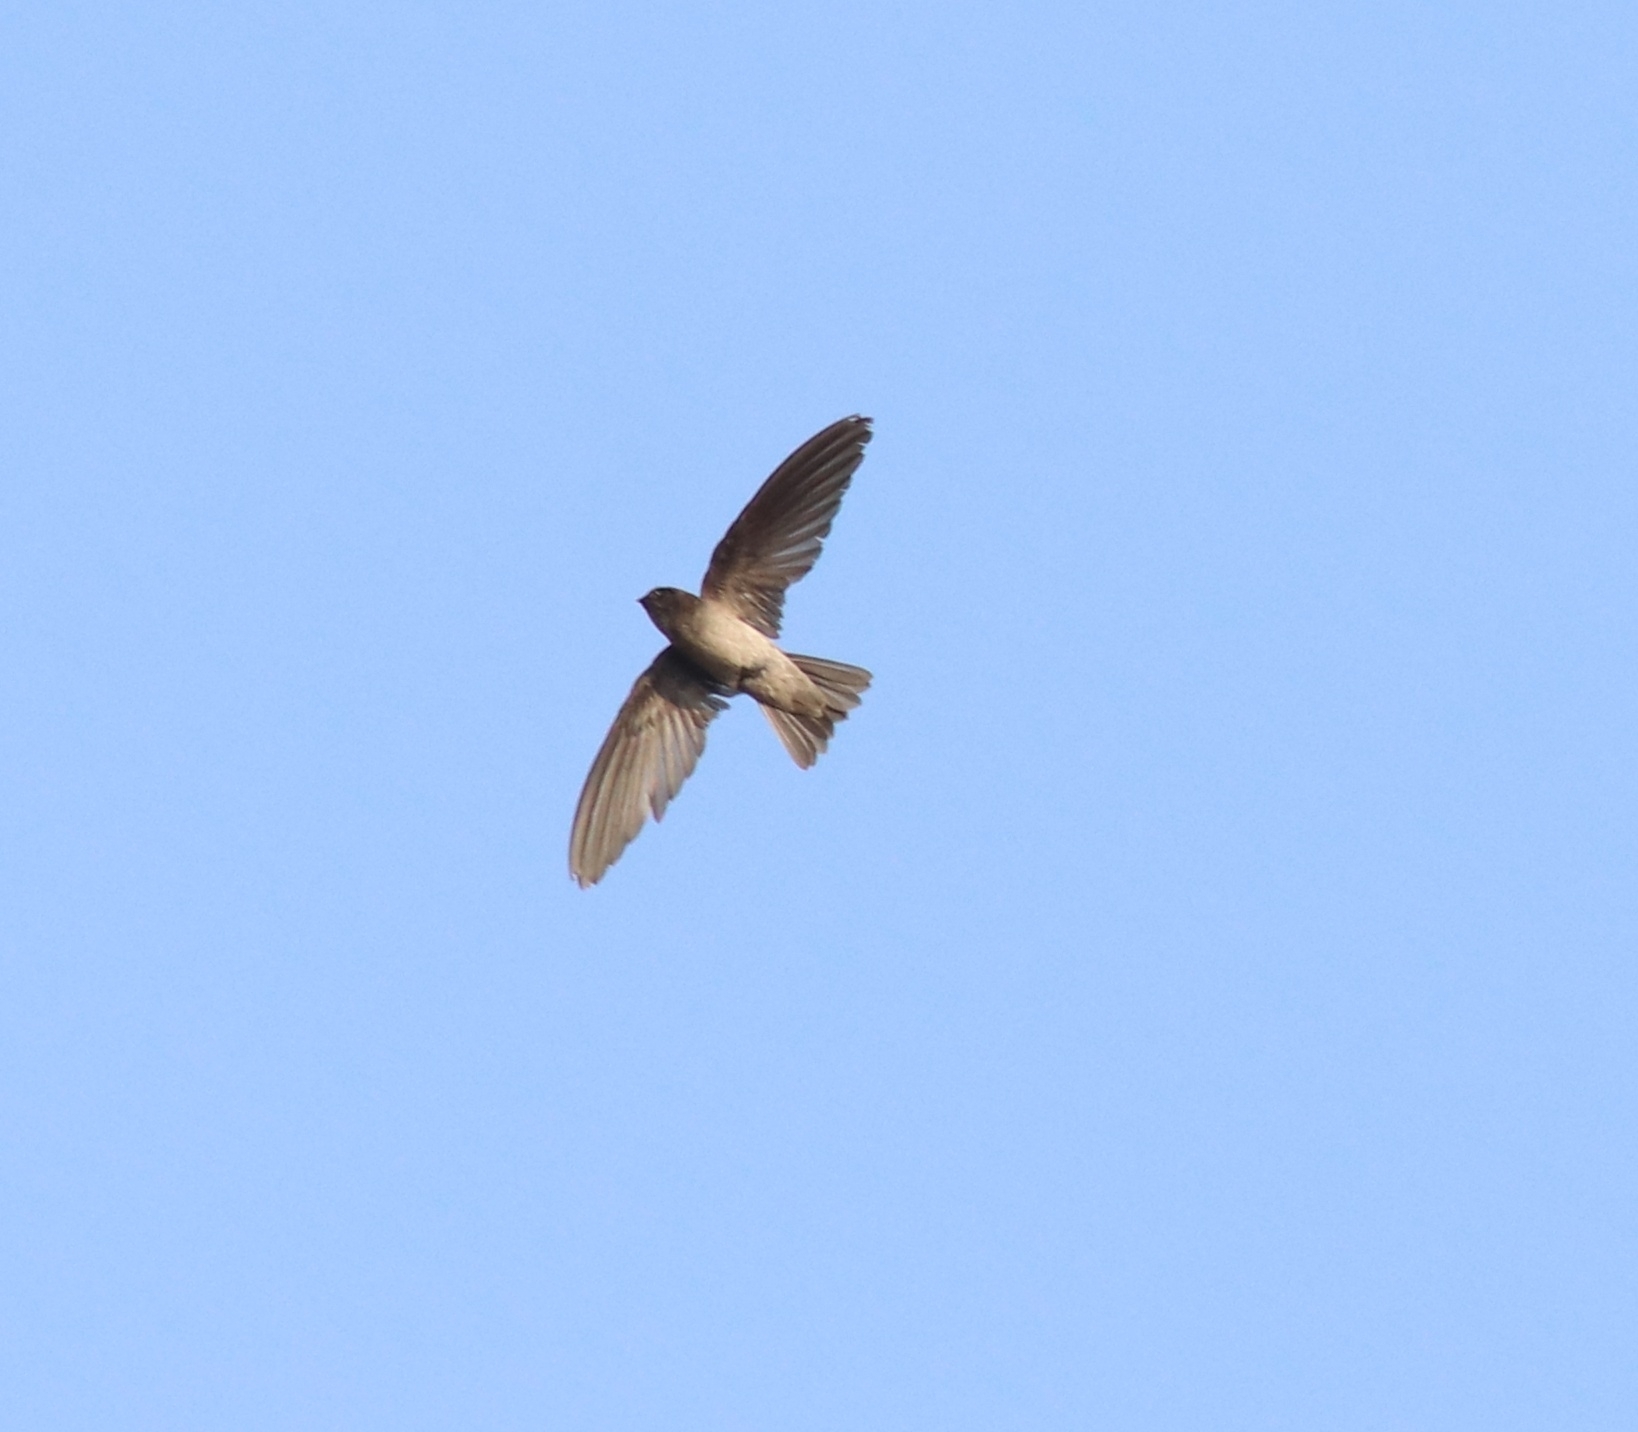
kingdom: Animalia
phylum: Chordata
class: Aves
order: Apodiformes
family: Apodidae
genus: Aerodramus
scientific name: Aerodramus unicolor
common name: Indian swiftlet
